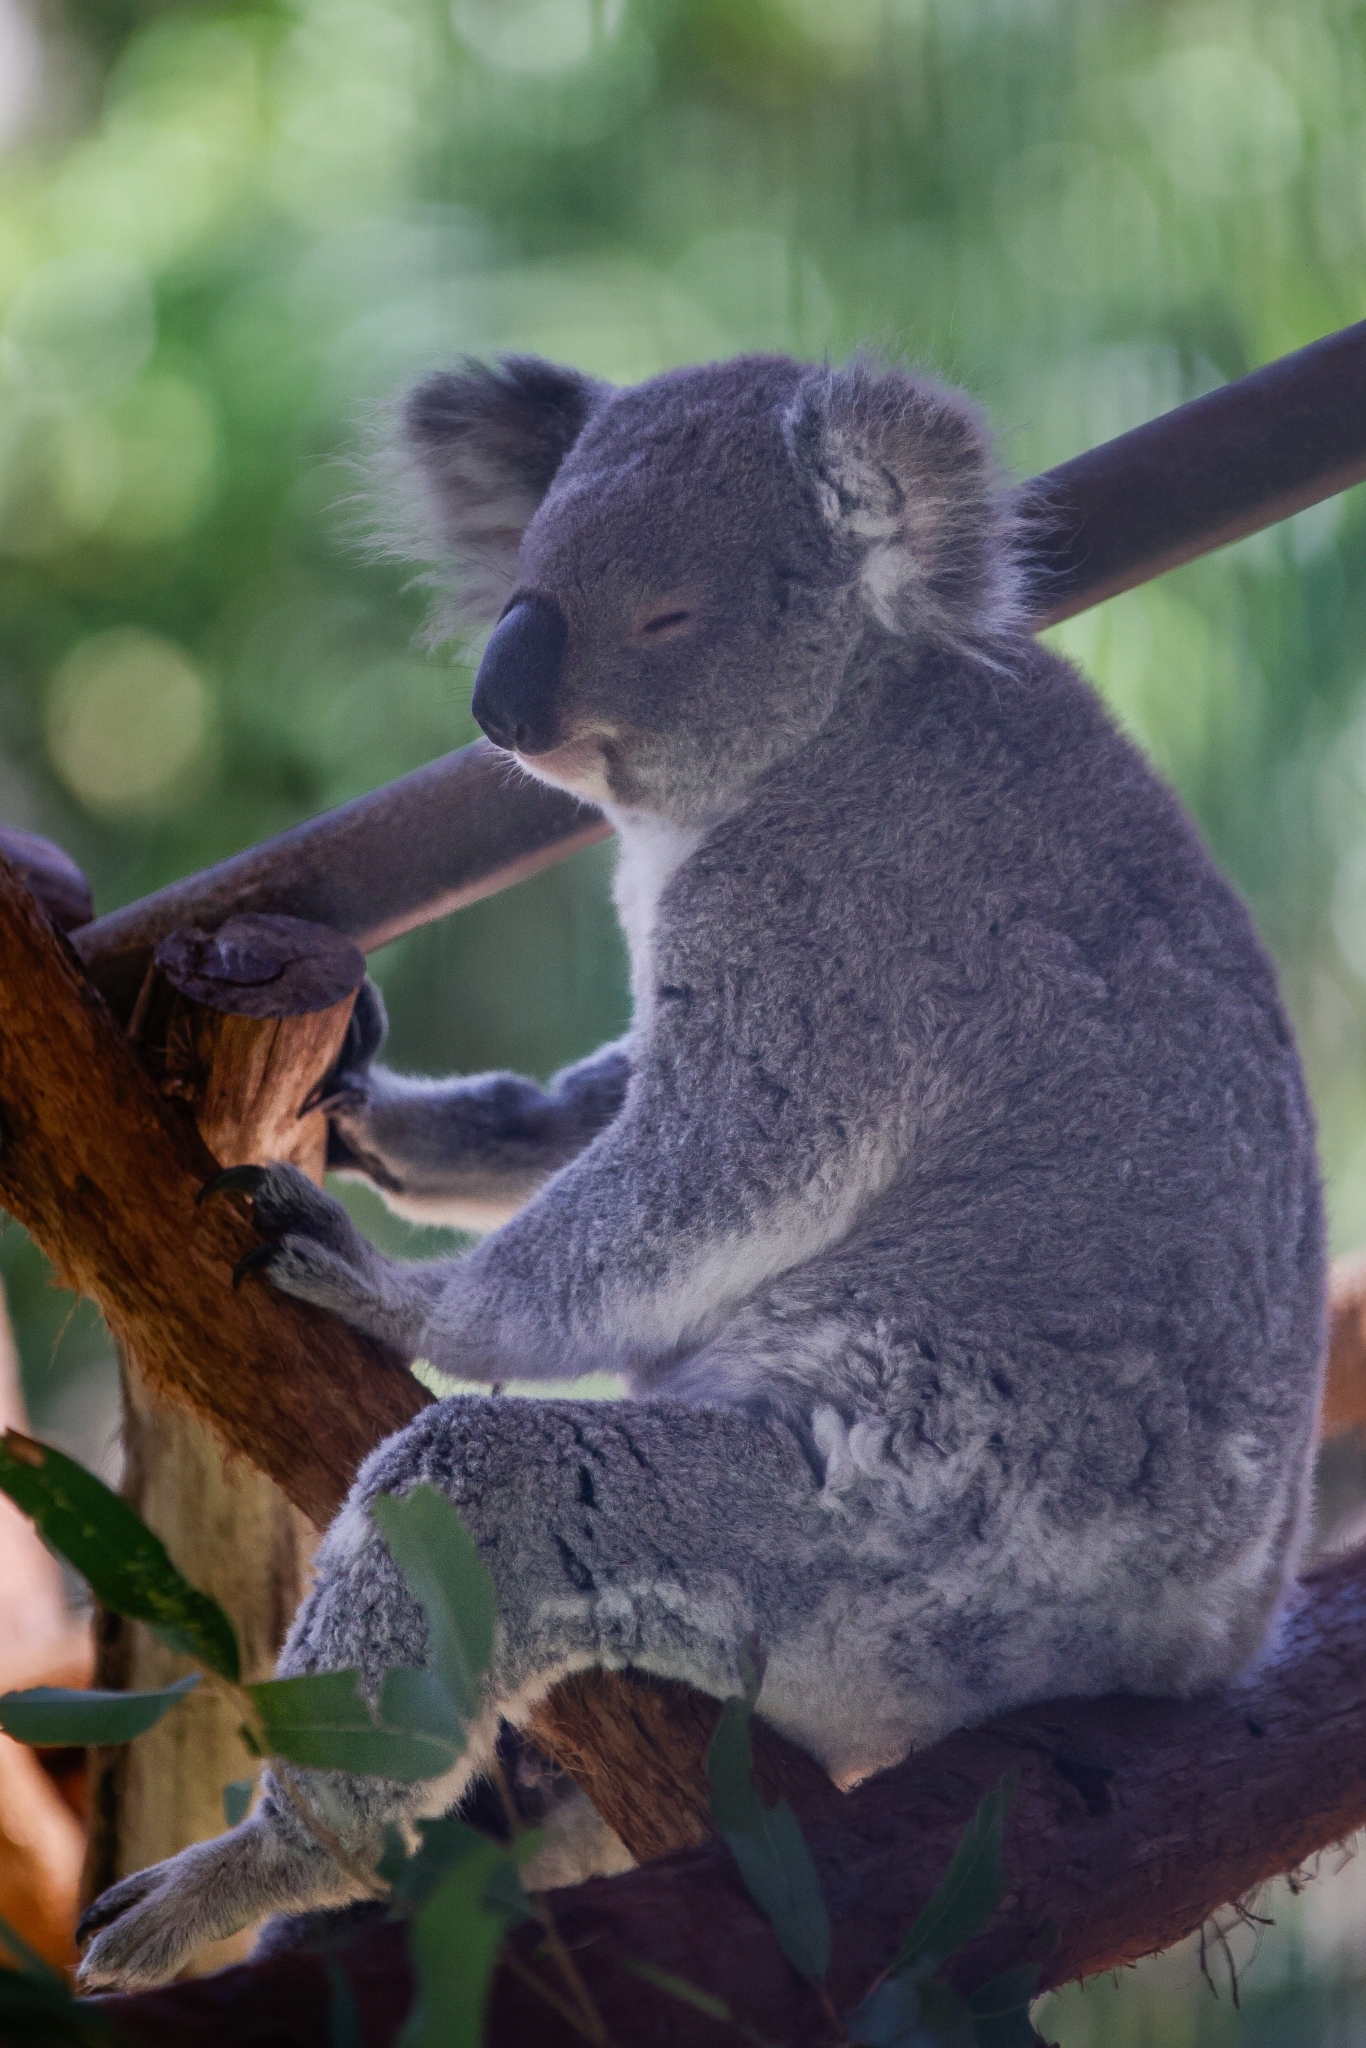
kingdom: Animalia
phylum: Chordata
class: Mammalia
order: Diprotodontia
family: Phascolarctidae
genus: Phascolarctos
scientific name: Phascolarctos cinereus
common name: Koala
